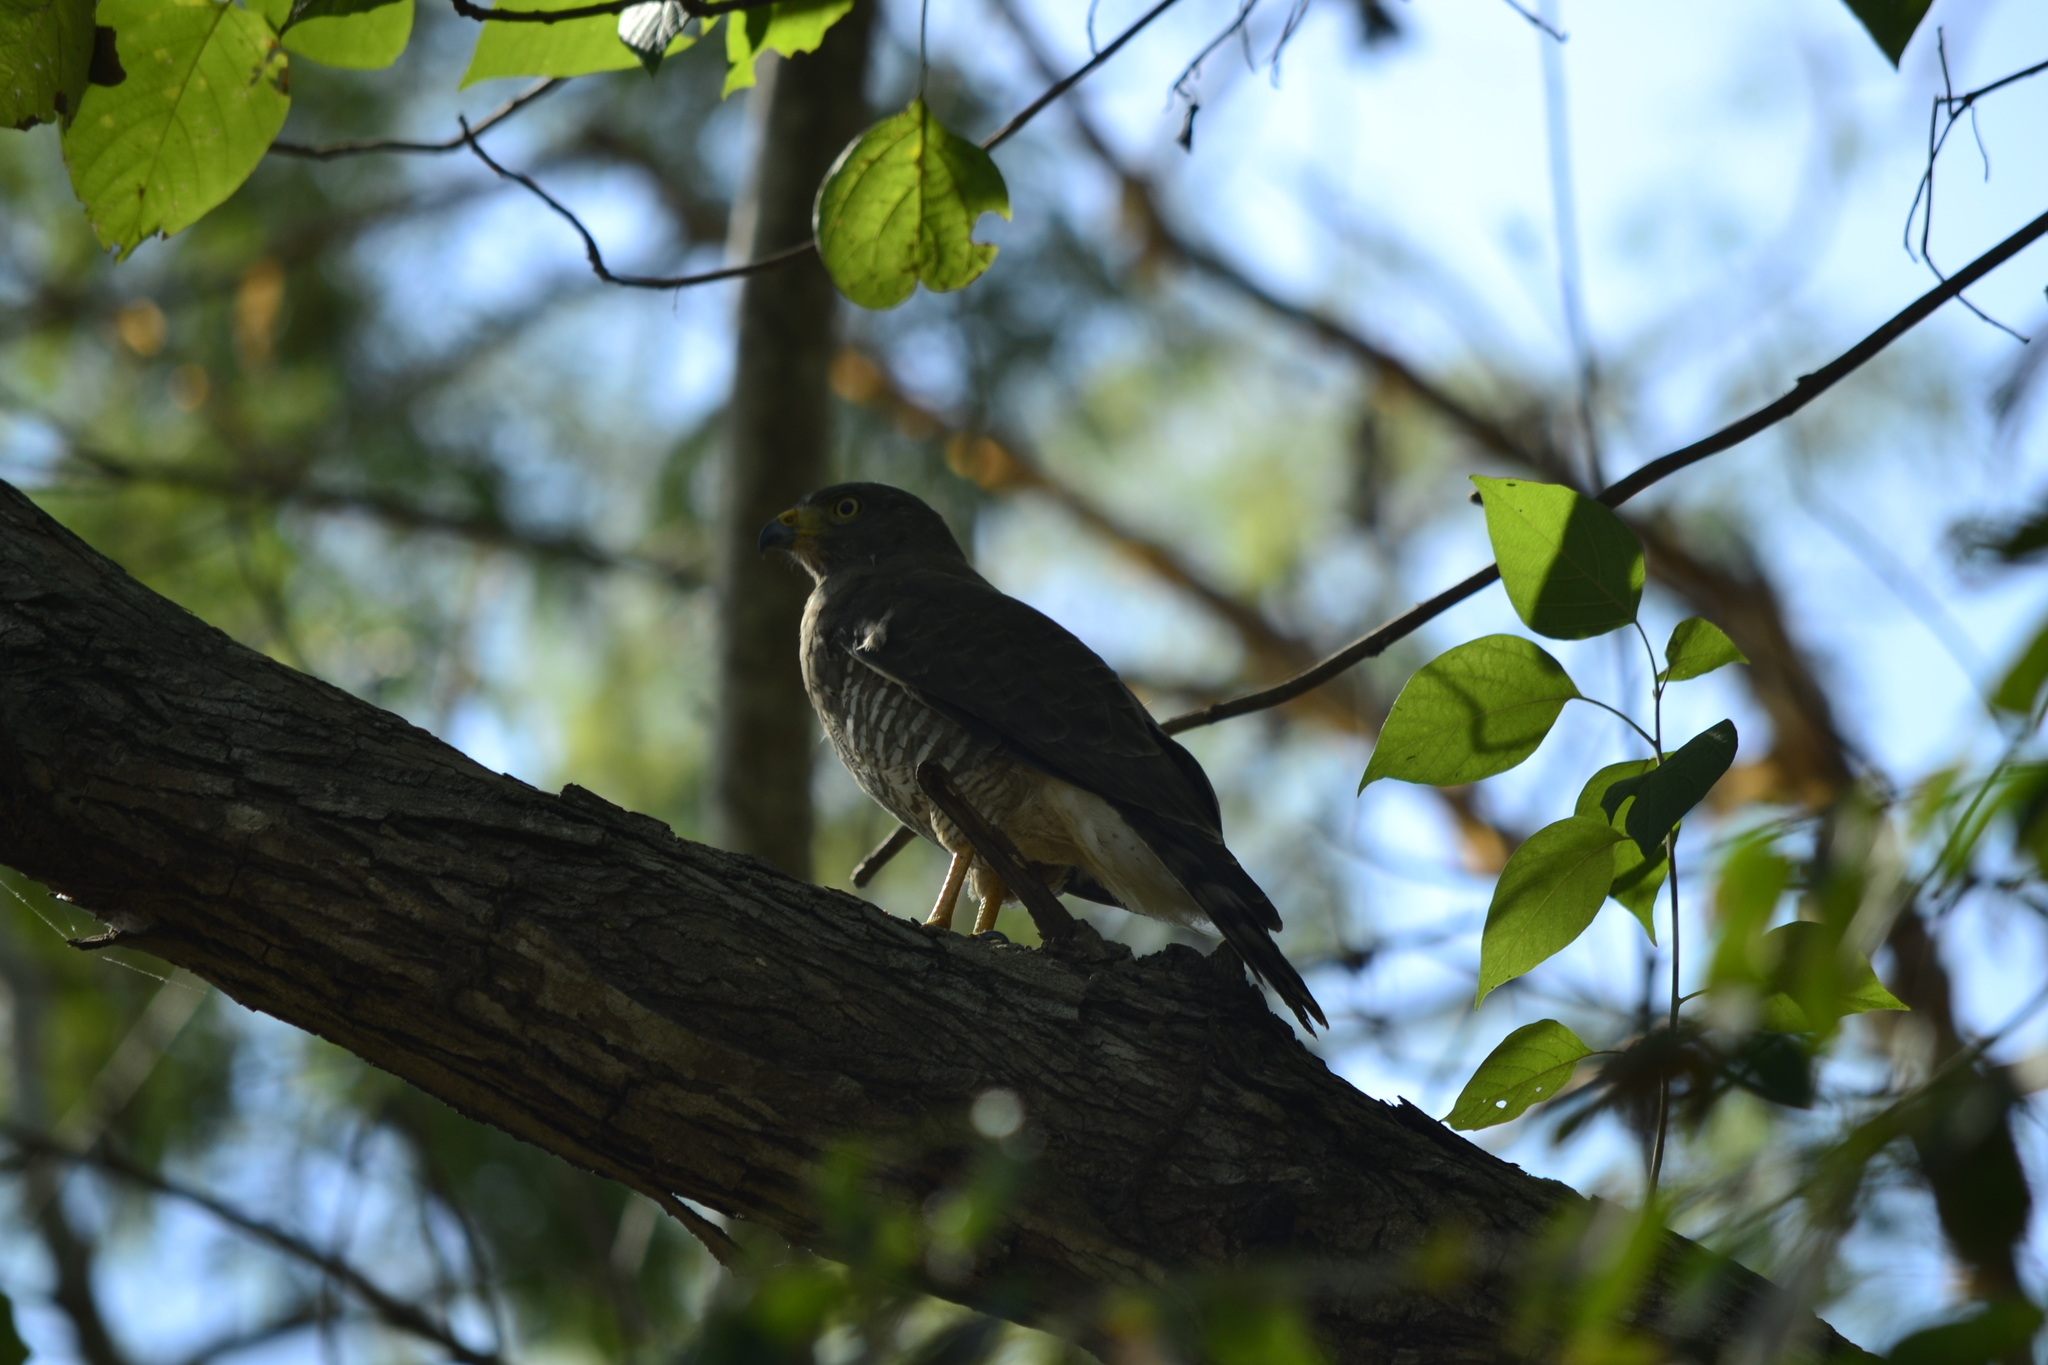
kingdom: Animalia
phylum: Chordata
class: Aves
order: Accipitriformes
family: Accipitridae
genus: Rupornis
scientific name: Rupornis magnirostris
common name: Roadside hawk
